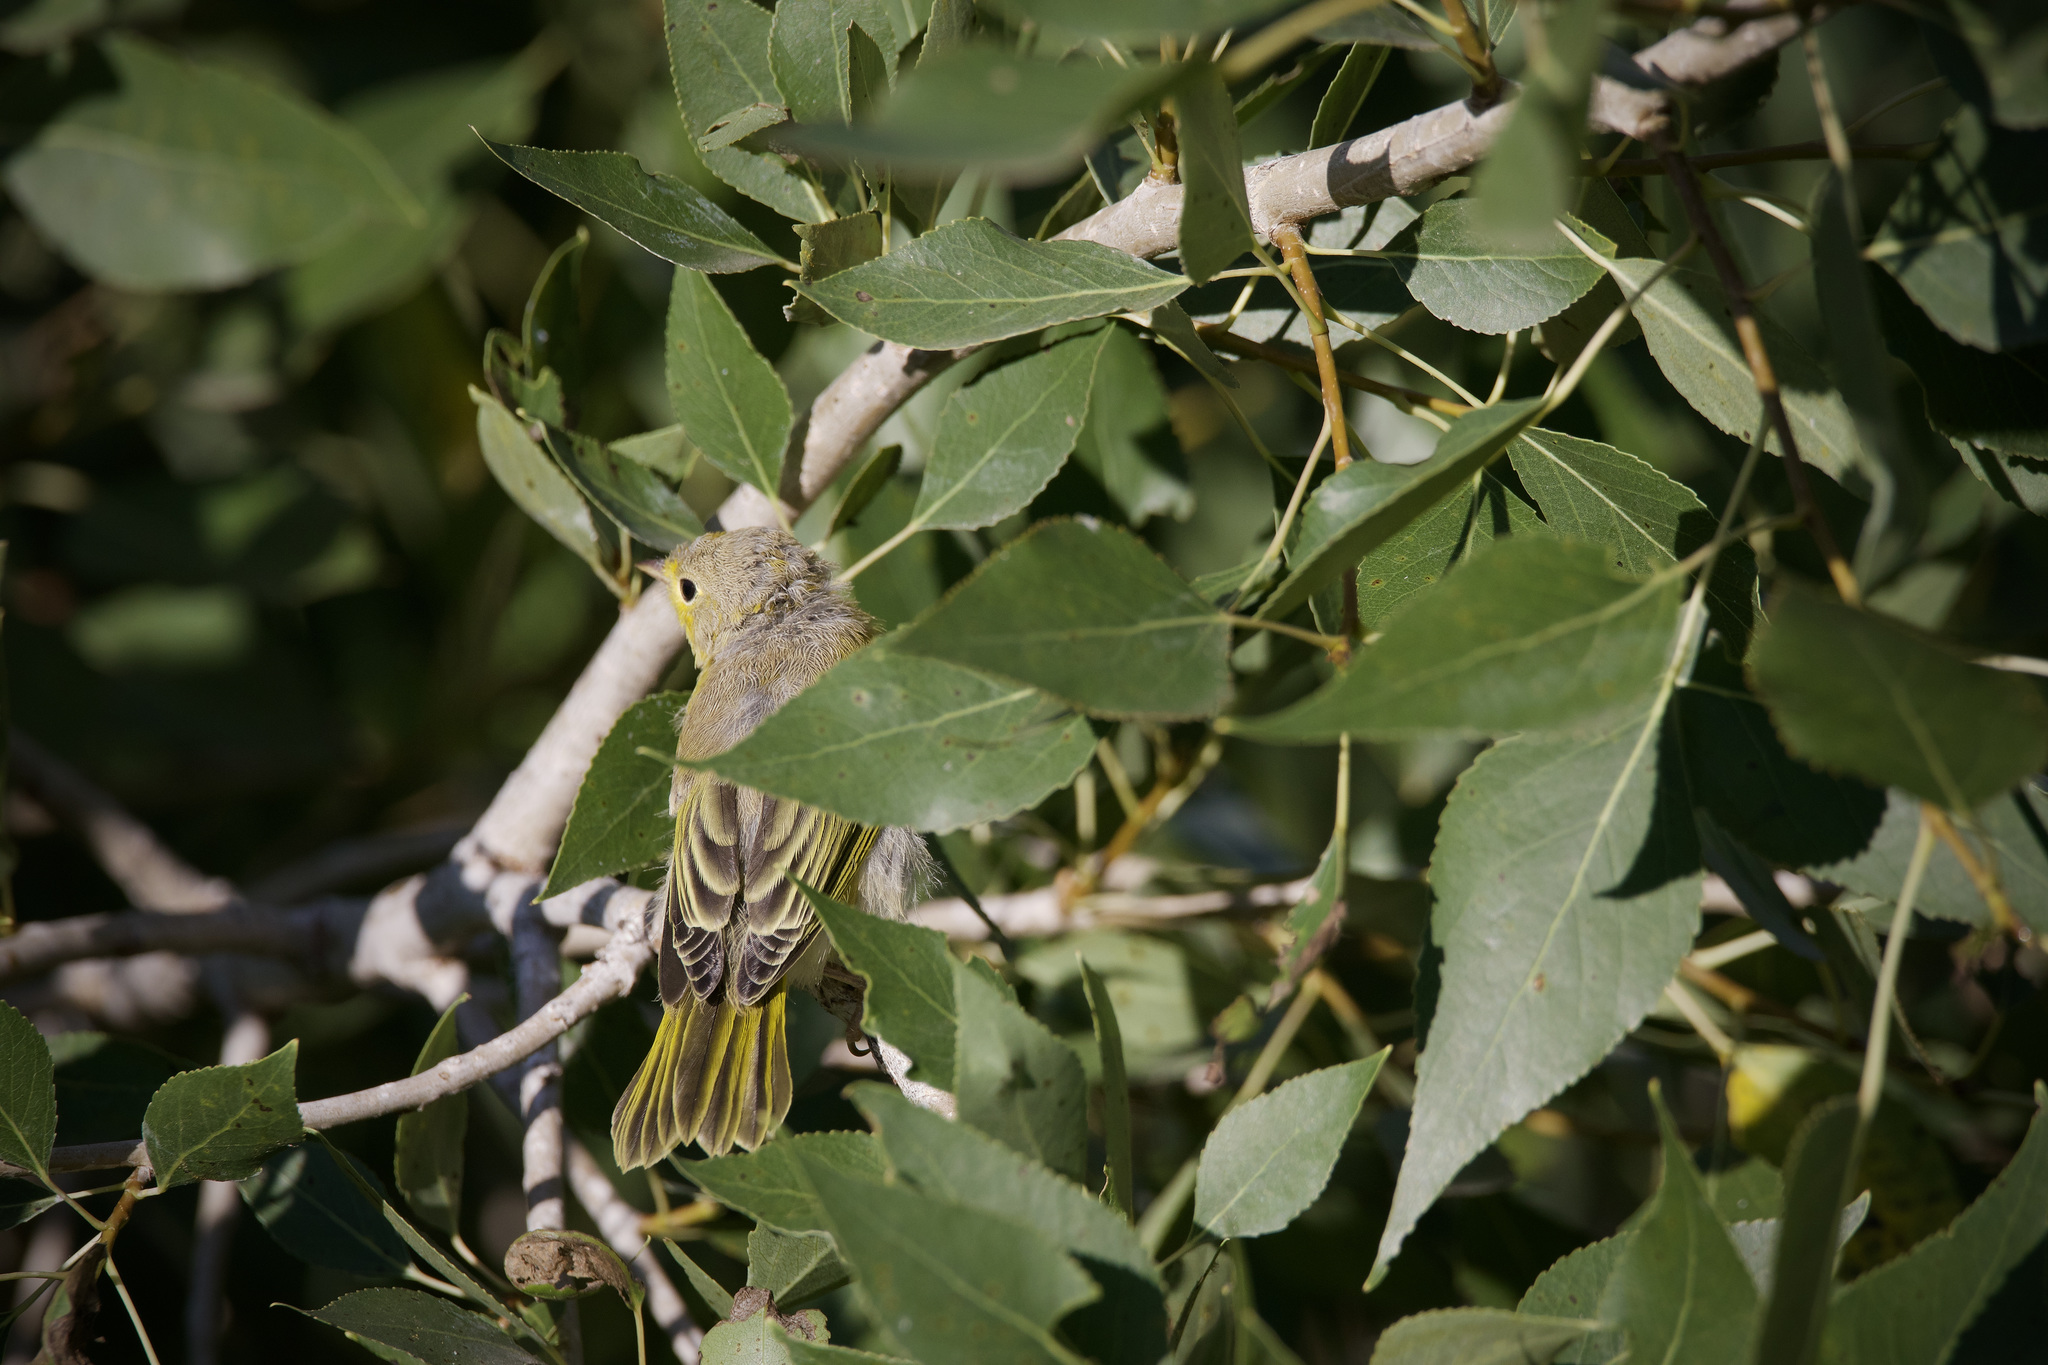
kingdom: Animalia
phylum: Chordata
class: Aves
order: Passeriformes
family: Parulidae
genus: Setophaga
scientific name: Setophaga petechia
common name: Yellow warbler
